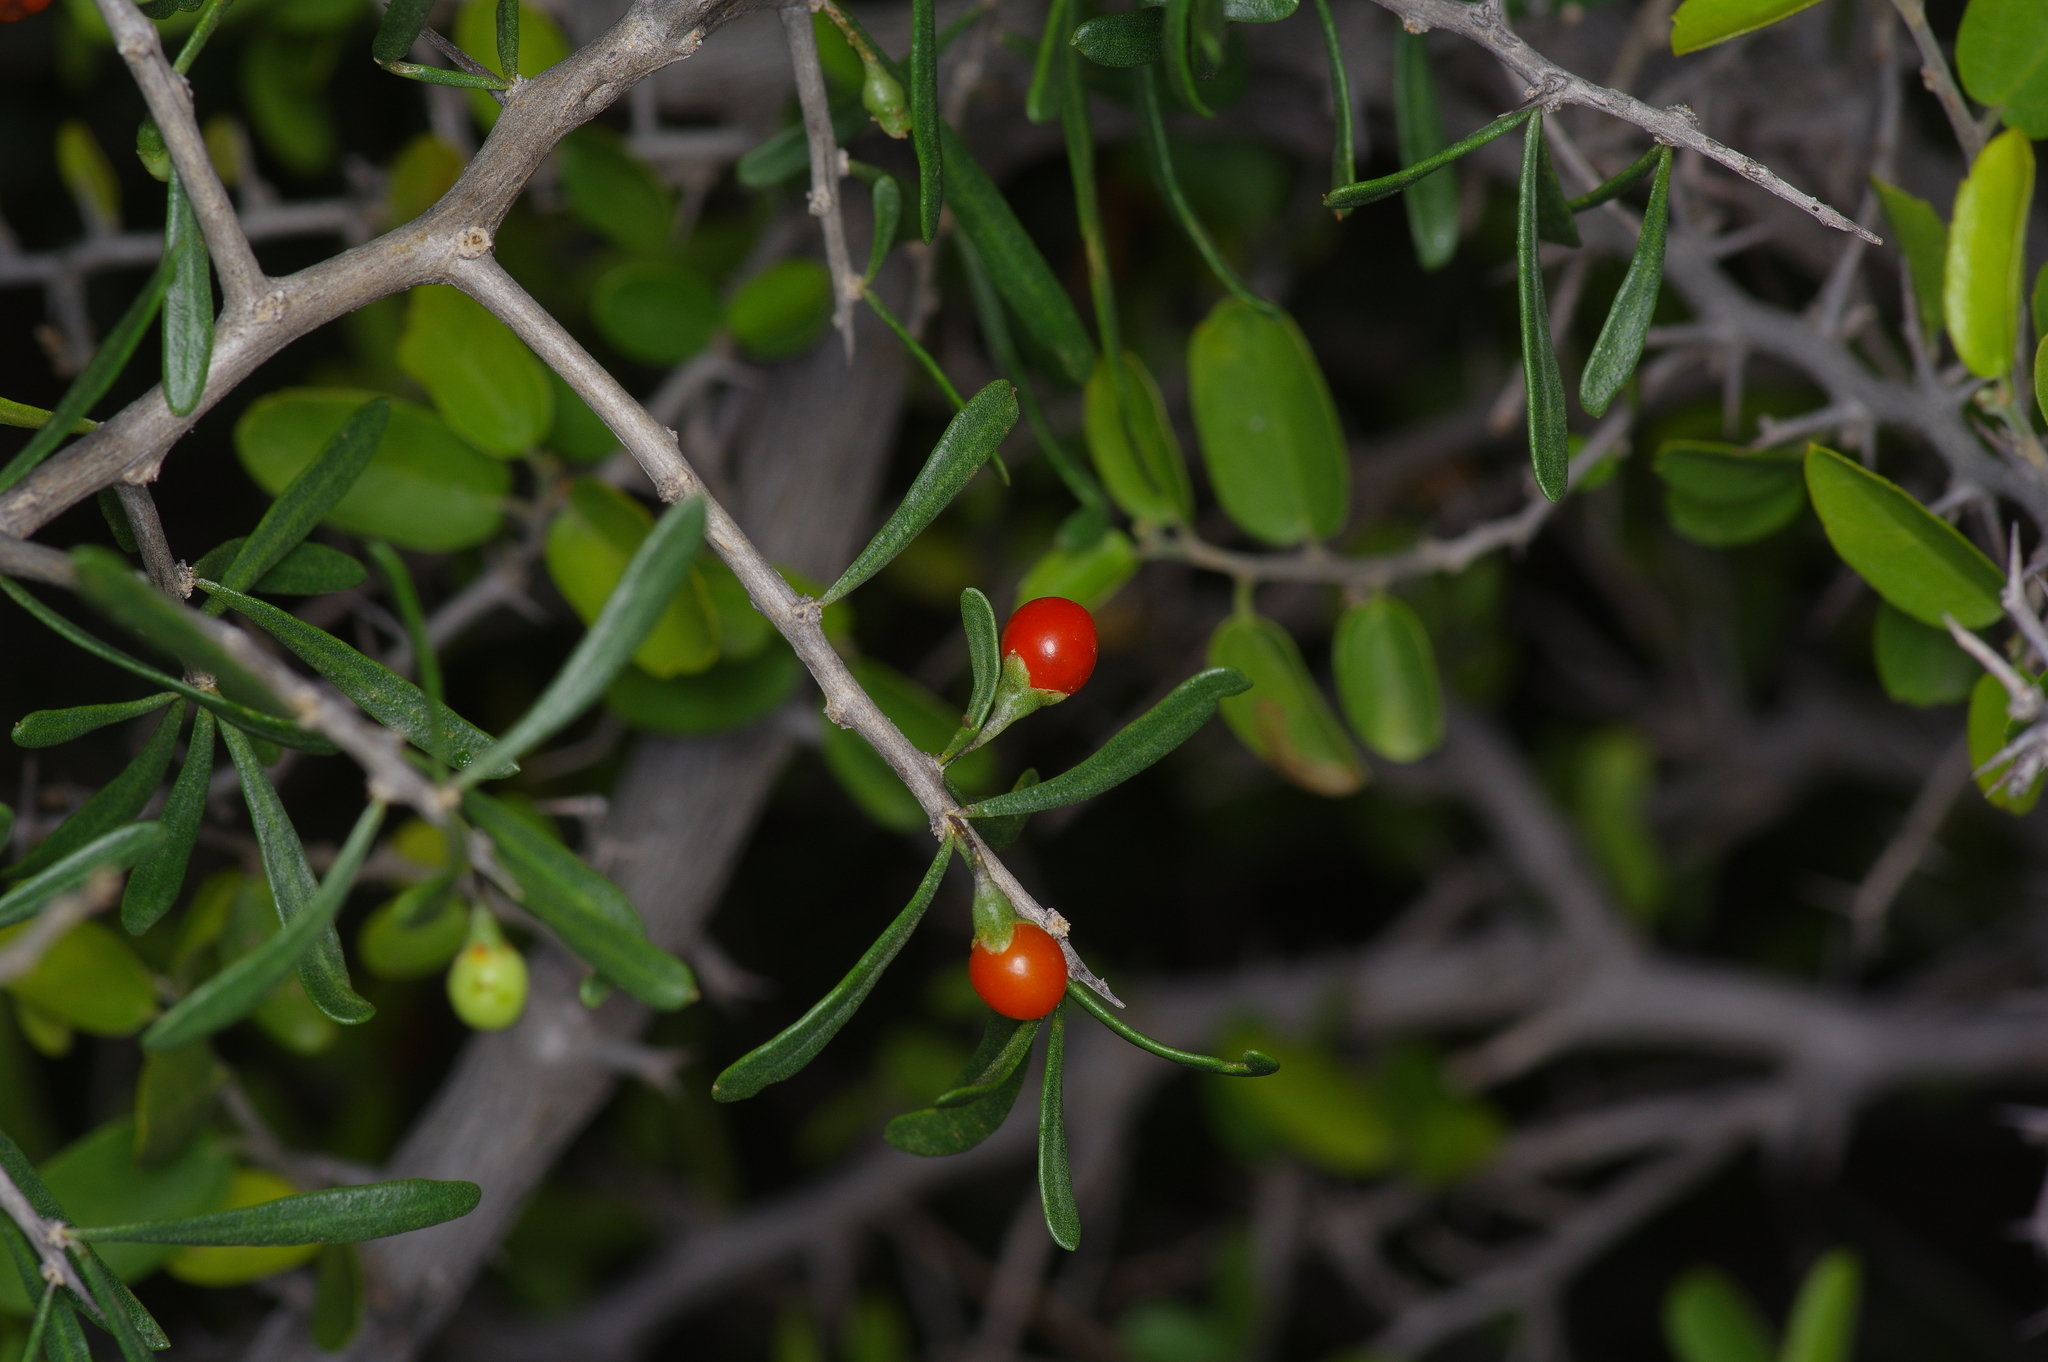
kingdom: Plantae
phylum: Tracheophyta
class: Magnoliopsida
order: Solanales
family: Solanaceae
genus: Lycium
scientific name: Lycium berlandieri
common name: Berlandier wolfberry
